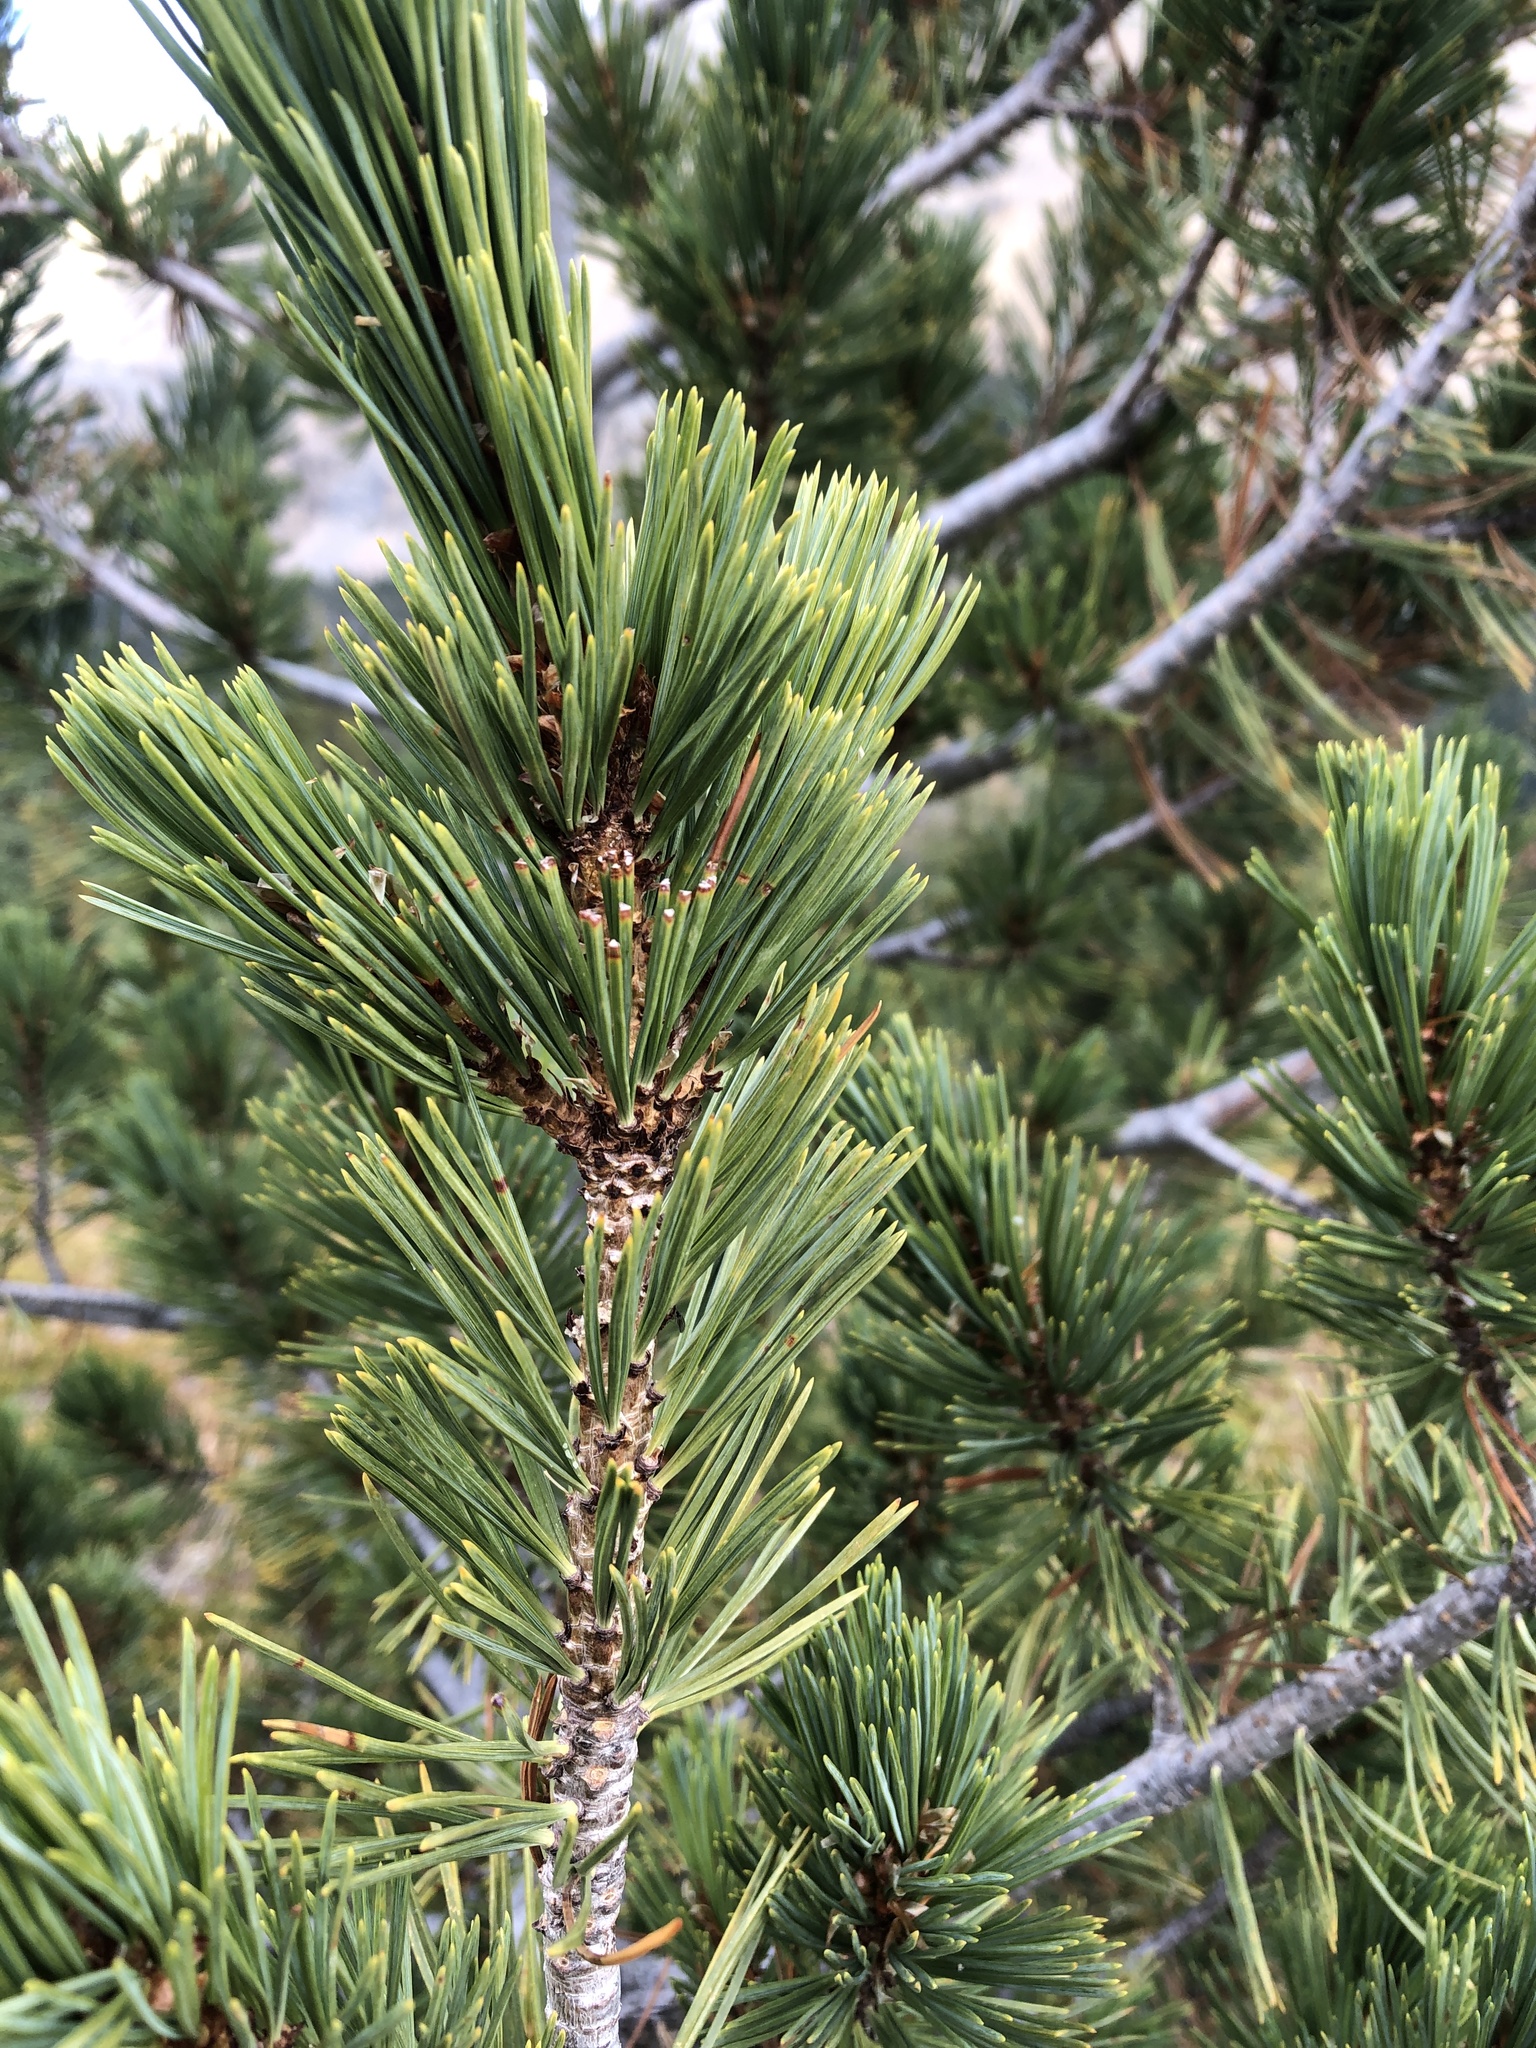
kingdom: Plantae
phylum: Tracheophyta
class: Pinopsida
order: Pinales
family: Pinaceae
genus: Pinus
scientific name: Pinus albicaulis
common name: Whitebark pine
